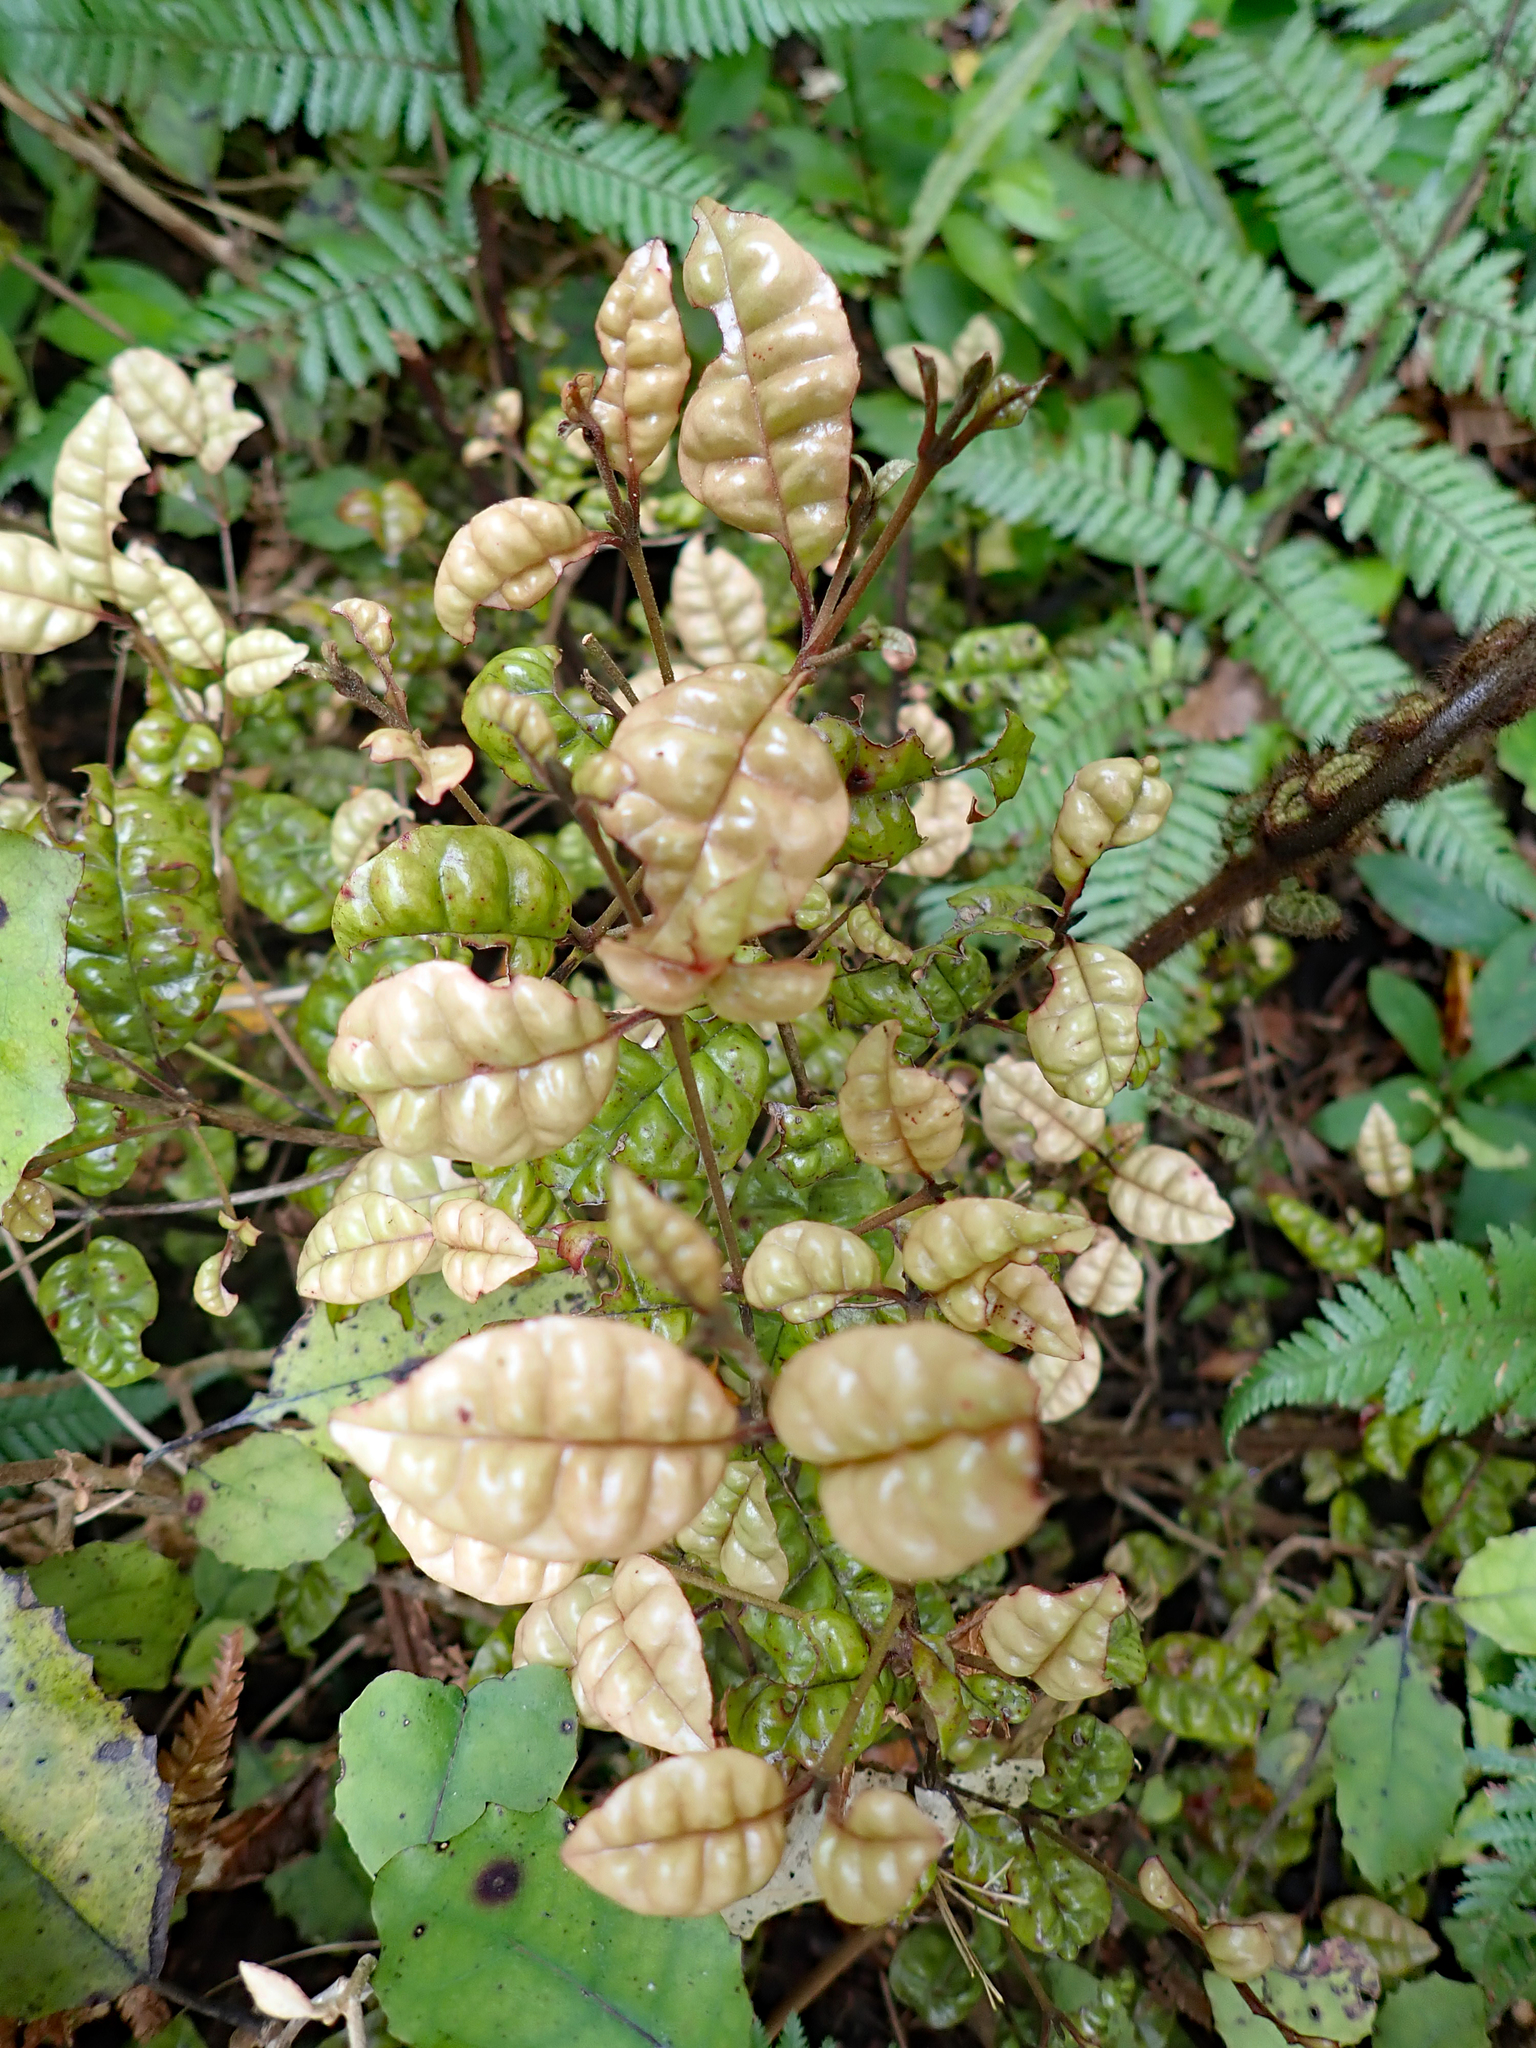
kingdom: Plantae
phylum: Tracheophyta
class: Magnoliopsida
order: Myrtales
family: Myrtaceae
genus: Lophomyrtus
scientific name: Lophomyrtus bullata
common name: Rama rama
